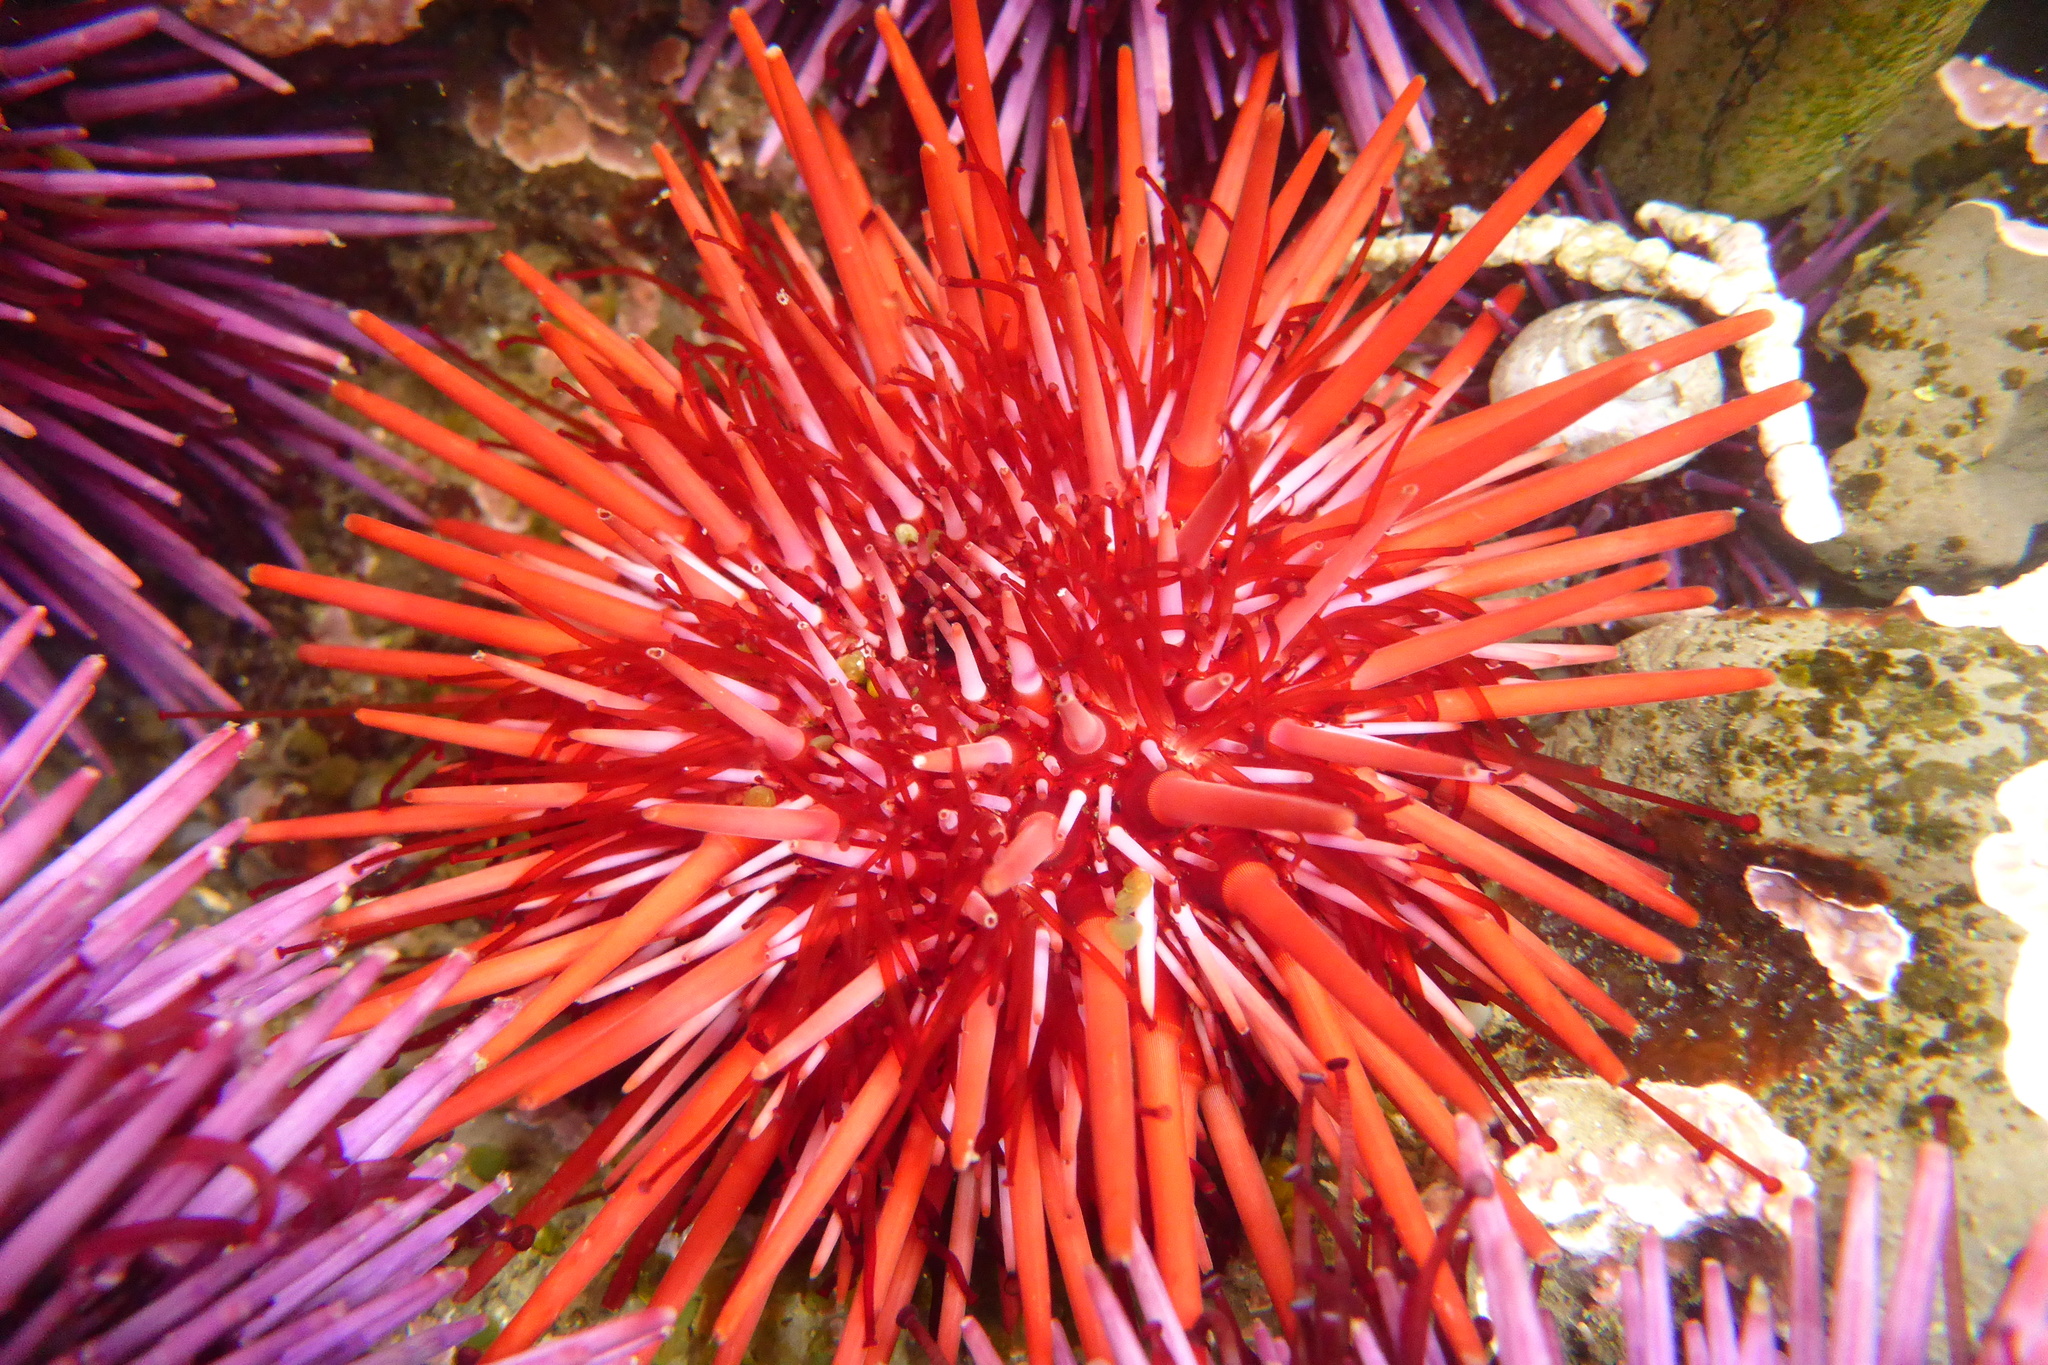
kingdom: Animalia
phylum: Echinodermata
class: Echinoidea
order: Camarodonta
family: Strongylocentrotidae
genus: Mesocentrotus
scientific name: Mesocentrotus franciscanus
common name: Red sea urchin
